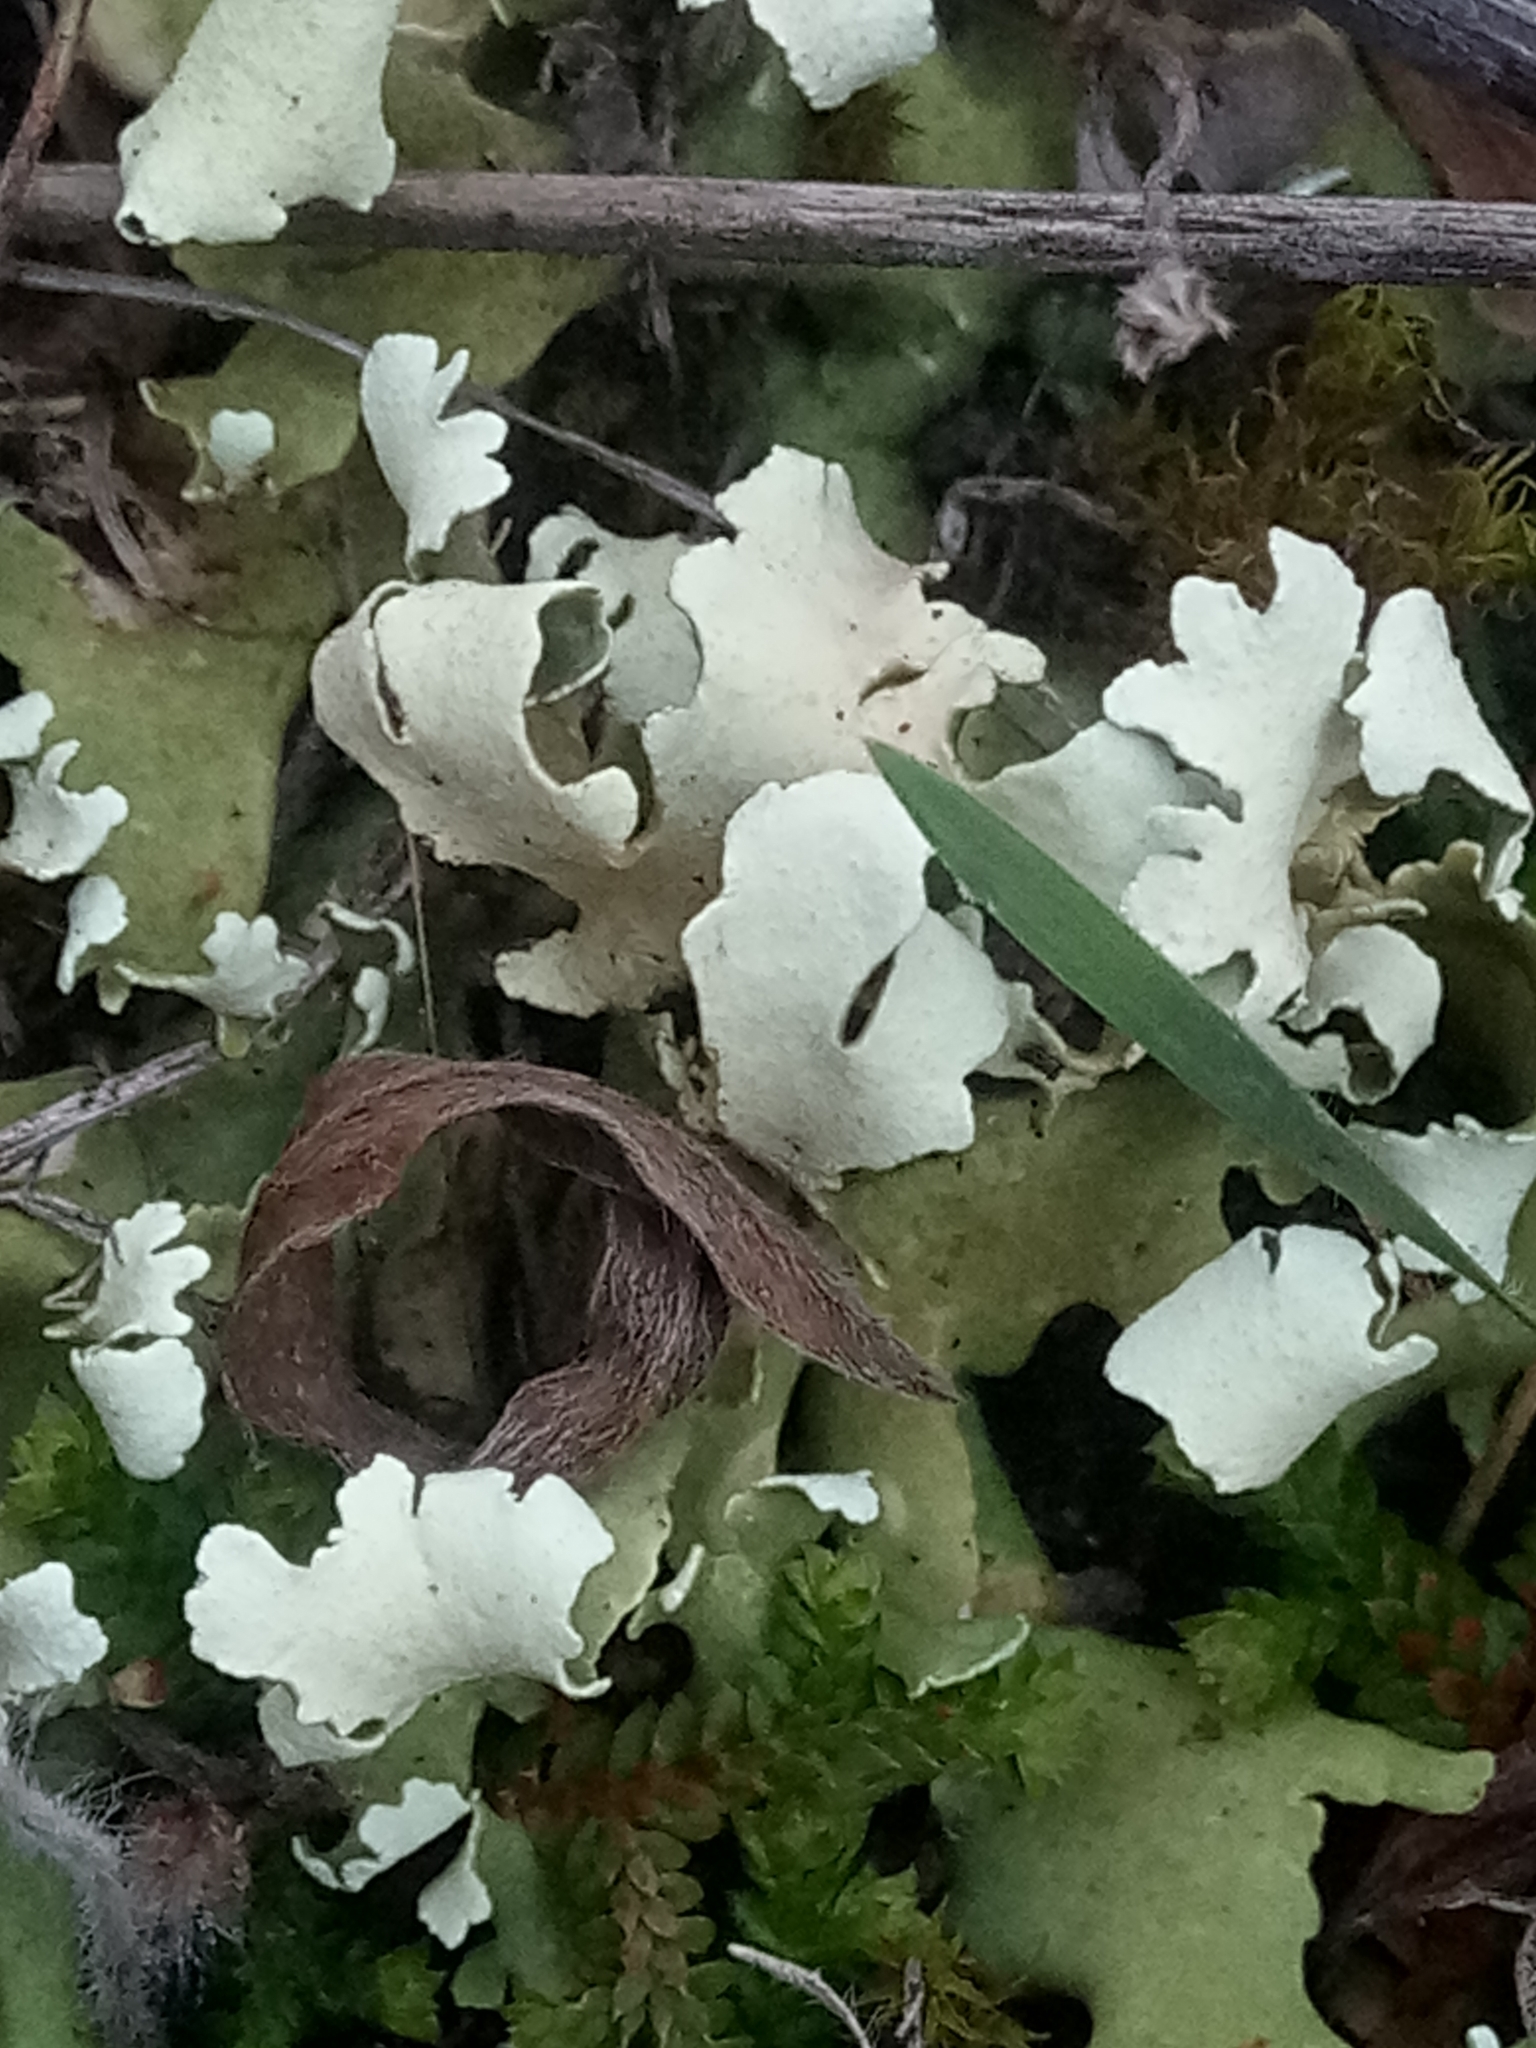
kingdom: Fungi
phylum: Ascomycota
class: Lecanoromycetes
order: Lecanorales
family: Cladoniaceae
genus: Cladonia
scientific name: Cladonia foliacea
